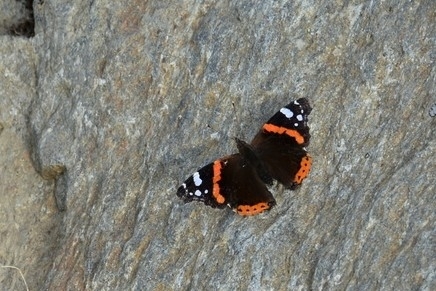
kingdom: Animalia
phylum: Arthropoda
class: Insecta
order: Lepidoptera
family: Nymphalidae
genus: Vanessa
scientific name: Vanessa atalanta
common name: Red admiral
